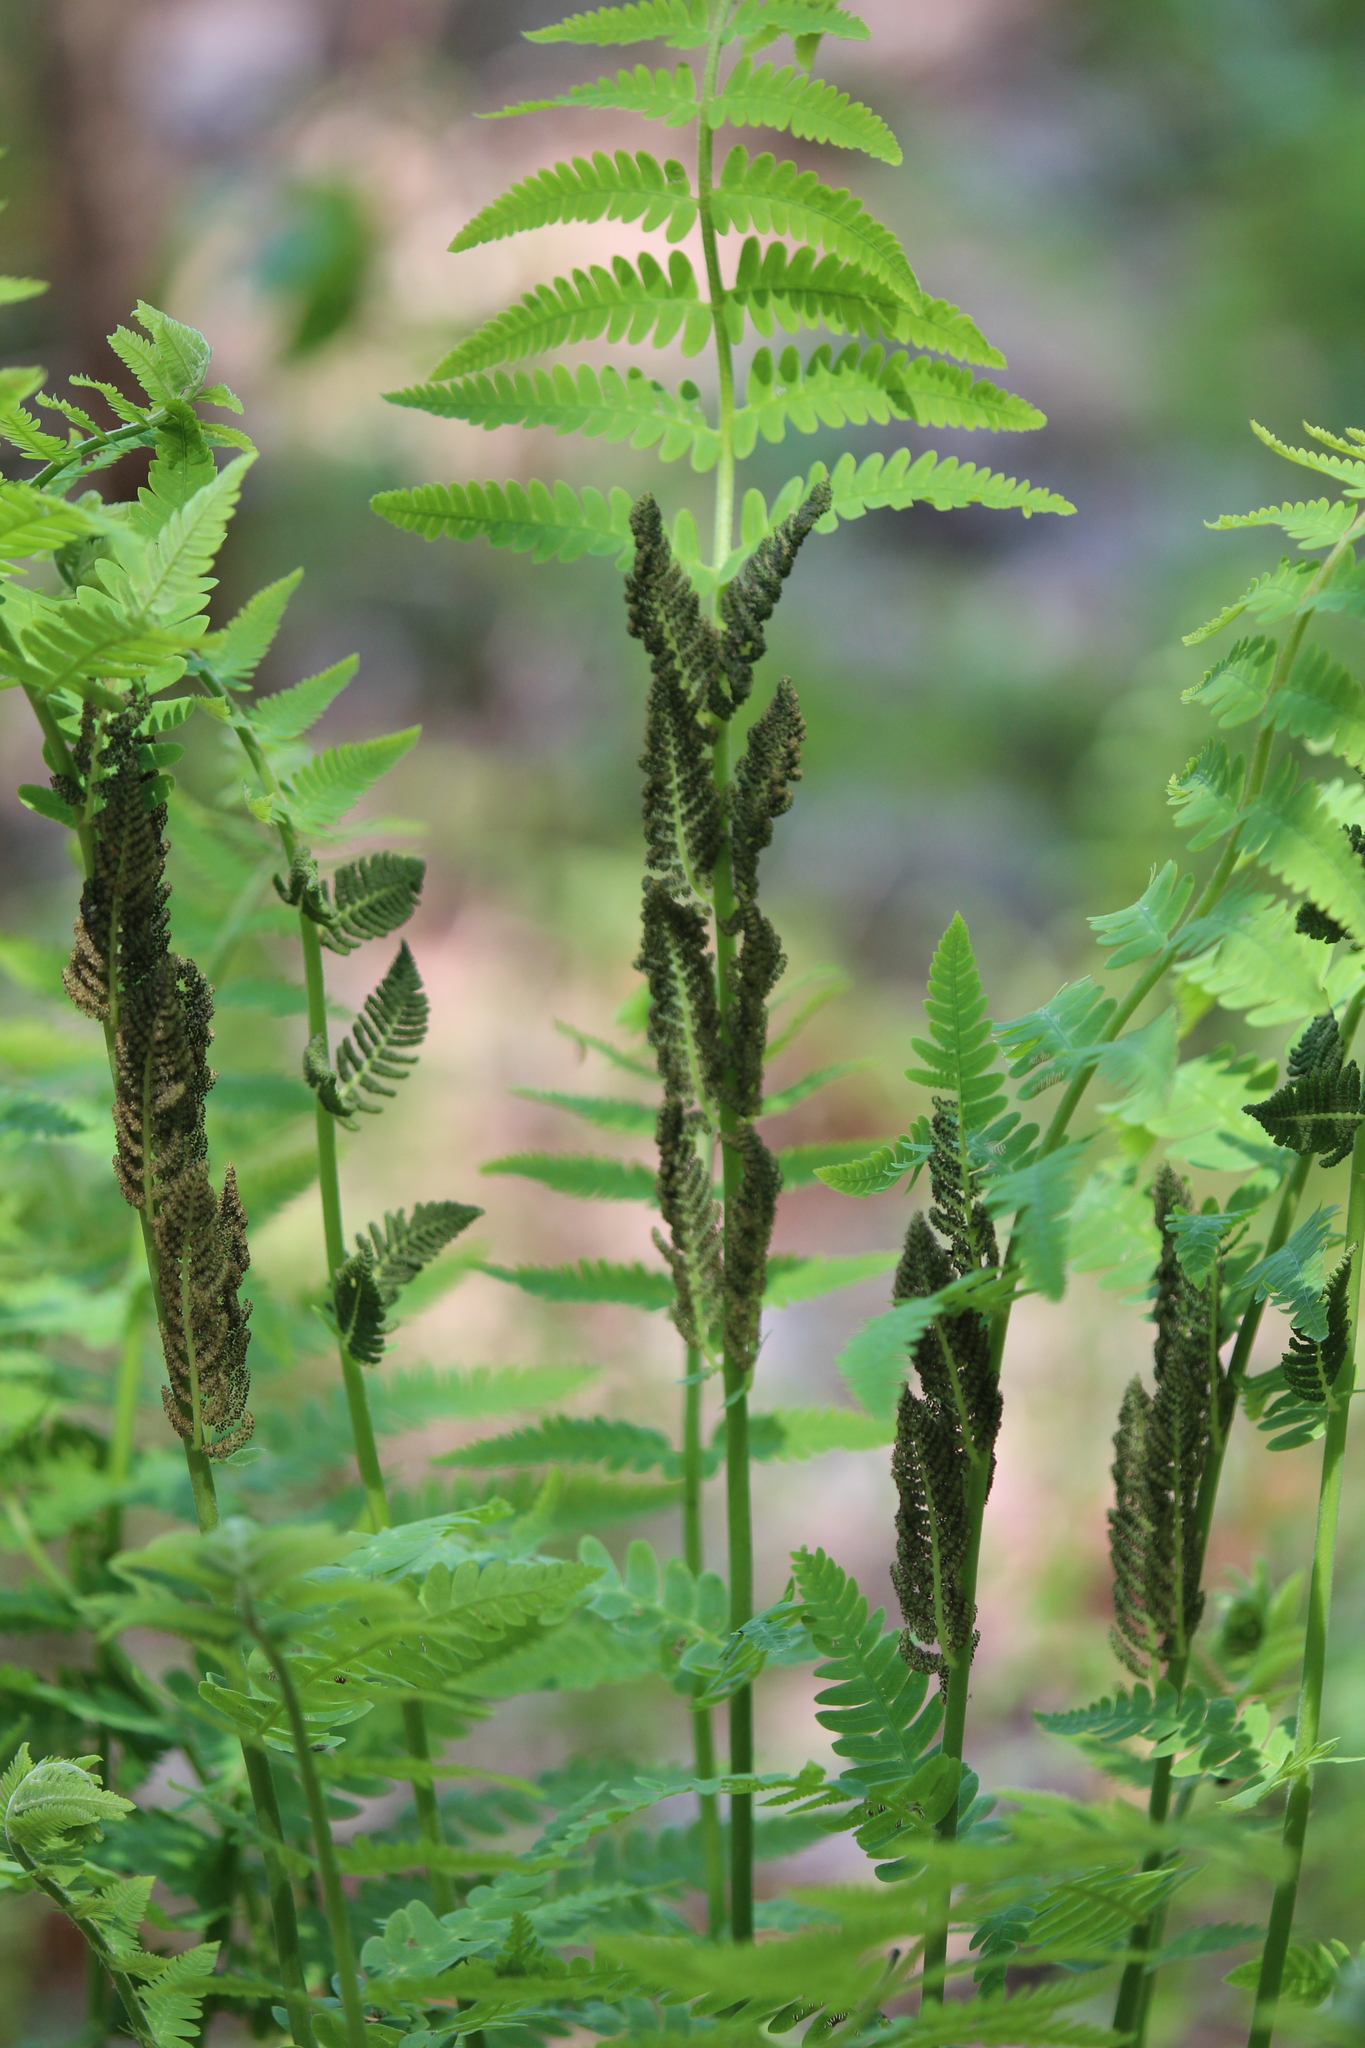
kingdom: Plantae
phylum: Tracheophyta
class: Polypodiopsida
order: Osmundales
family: Osmundaceae
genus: Claytosmunda
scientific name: Claytosmunda claytoniana
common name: Clayton's fern
